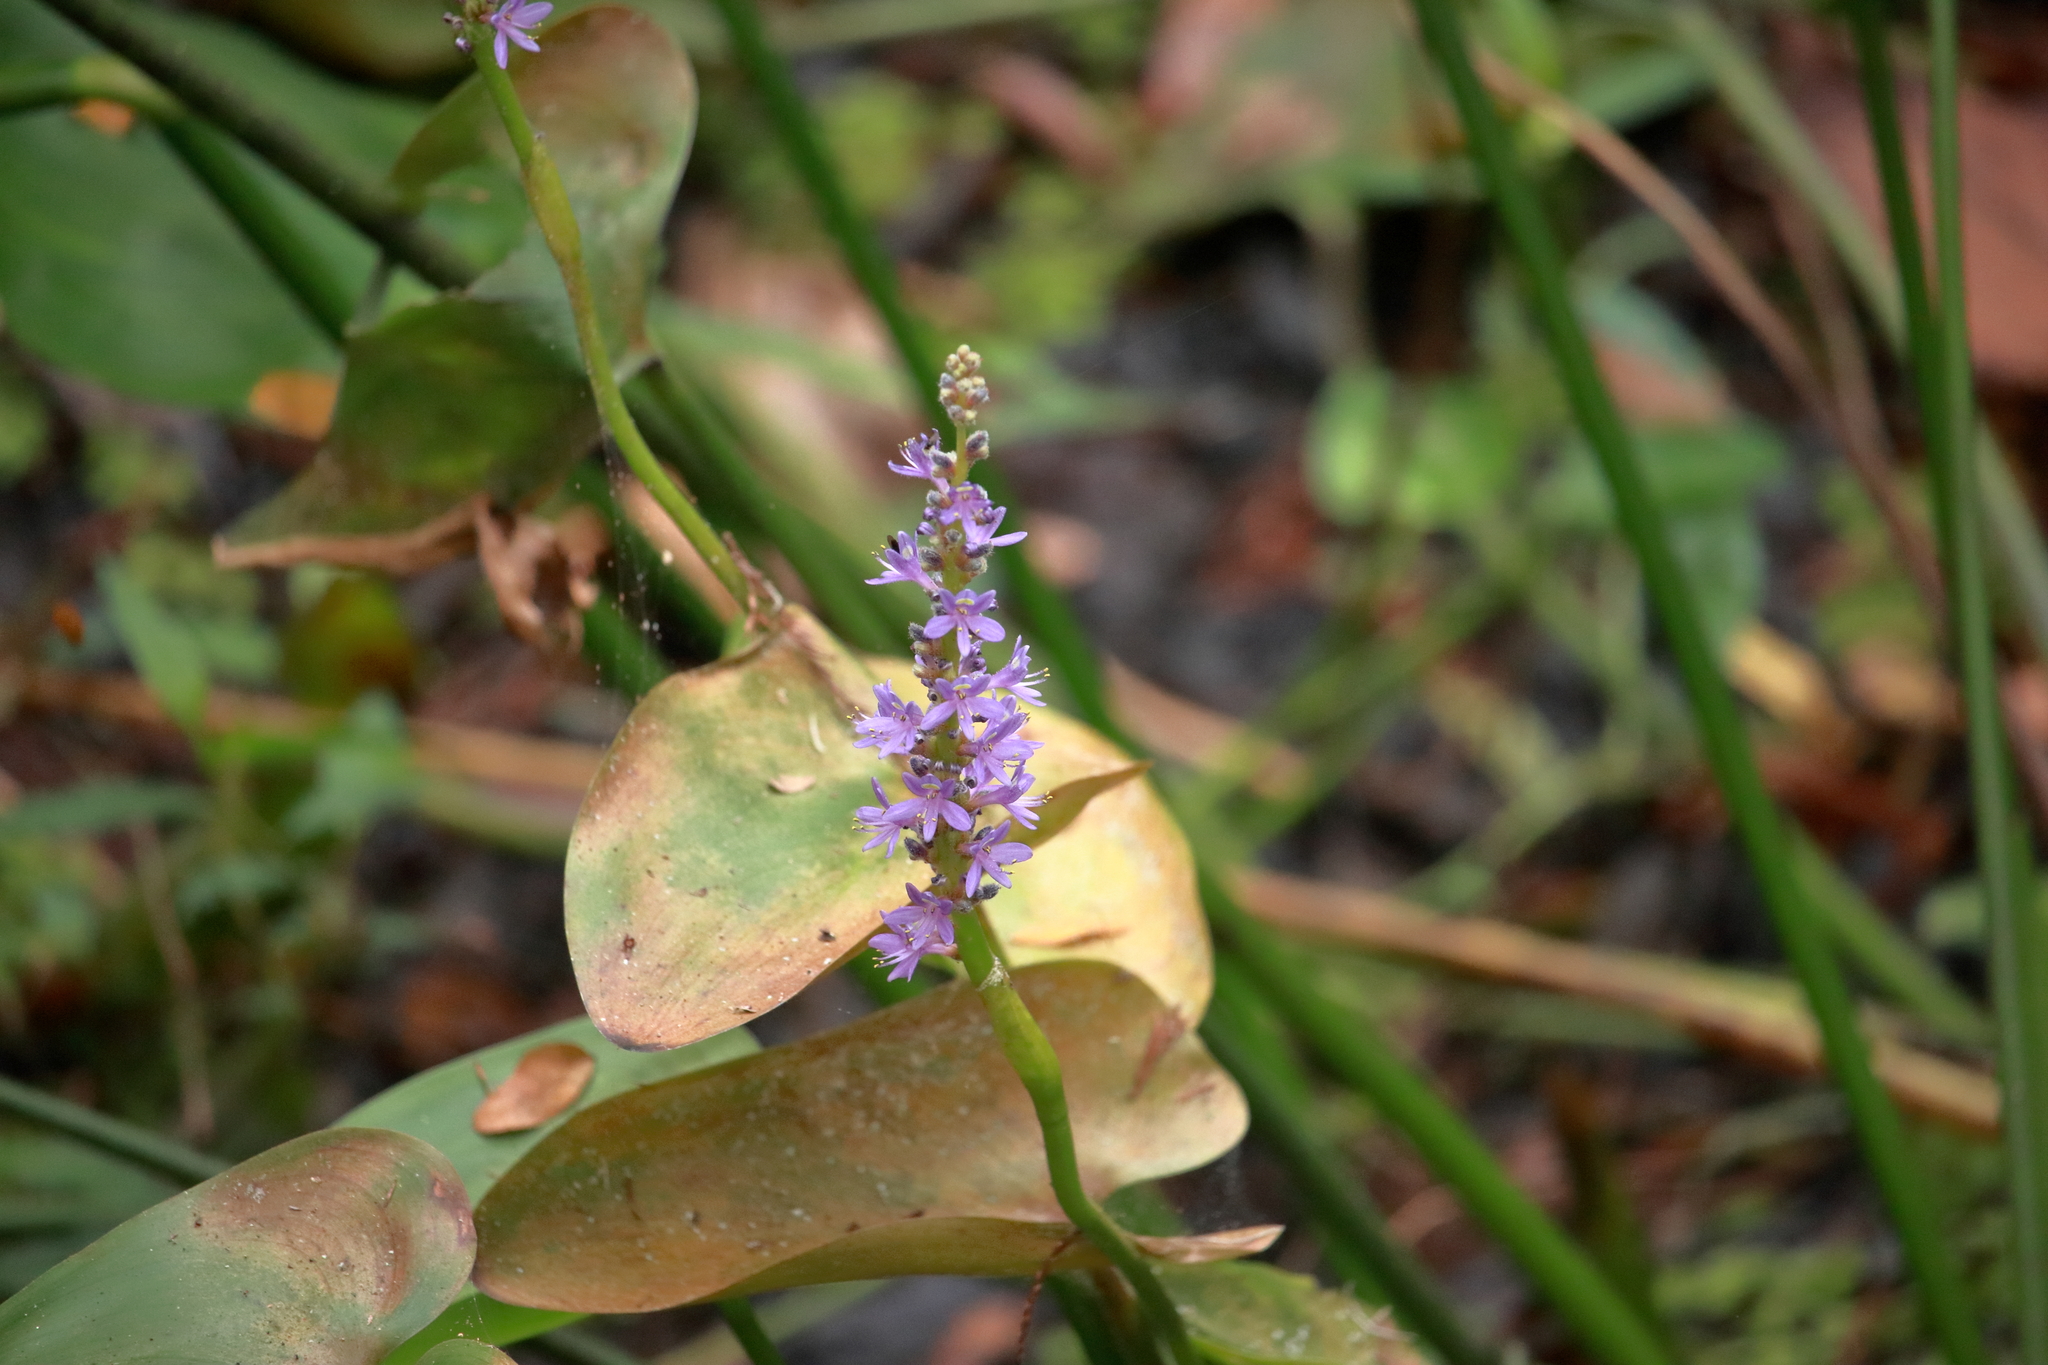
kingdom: Plantae
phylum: Tracheophyta
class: Liliopsida
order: Commelinales
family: Pontederiaceae
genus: Pontederia
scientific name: Pontederia cordata
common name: Pickerelweed
